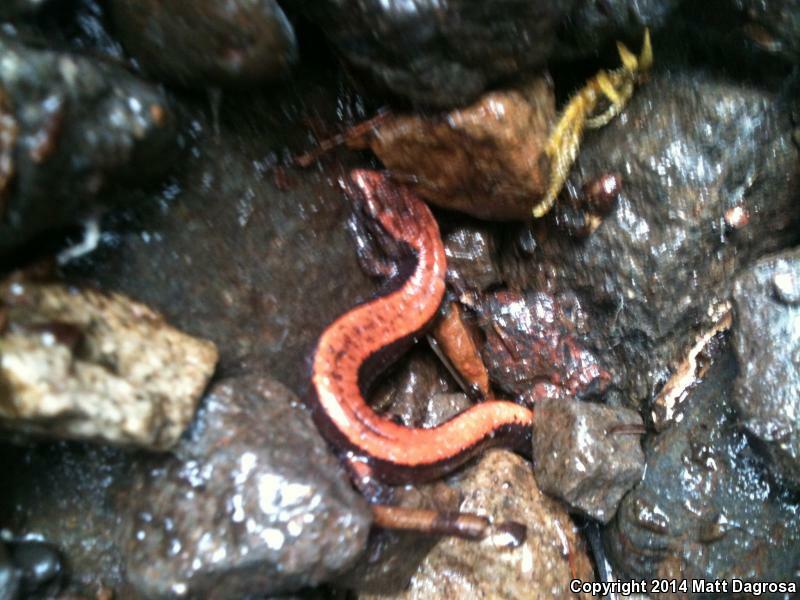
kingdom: Animalia
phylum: Chordata
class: Amphibia
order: Caudata
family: Plethodontidae
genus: Plethodon
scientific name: Plethodon vehiculum
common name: Western red-backed salamander
